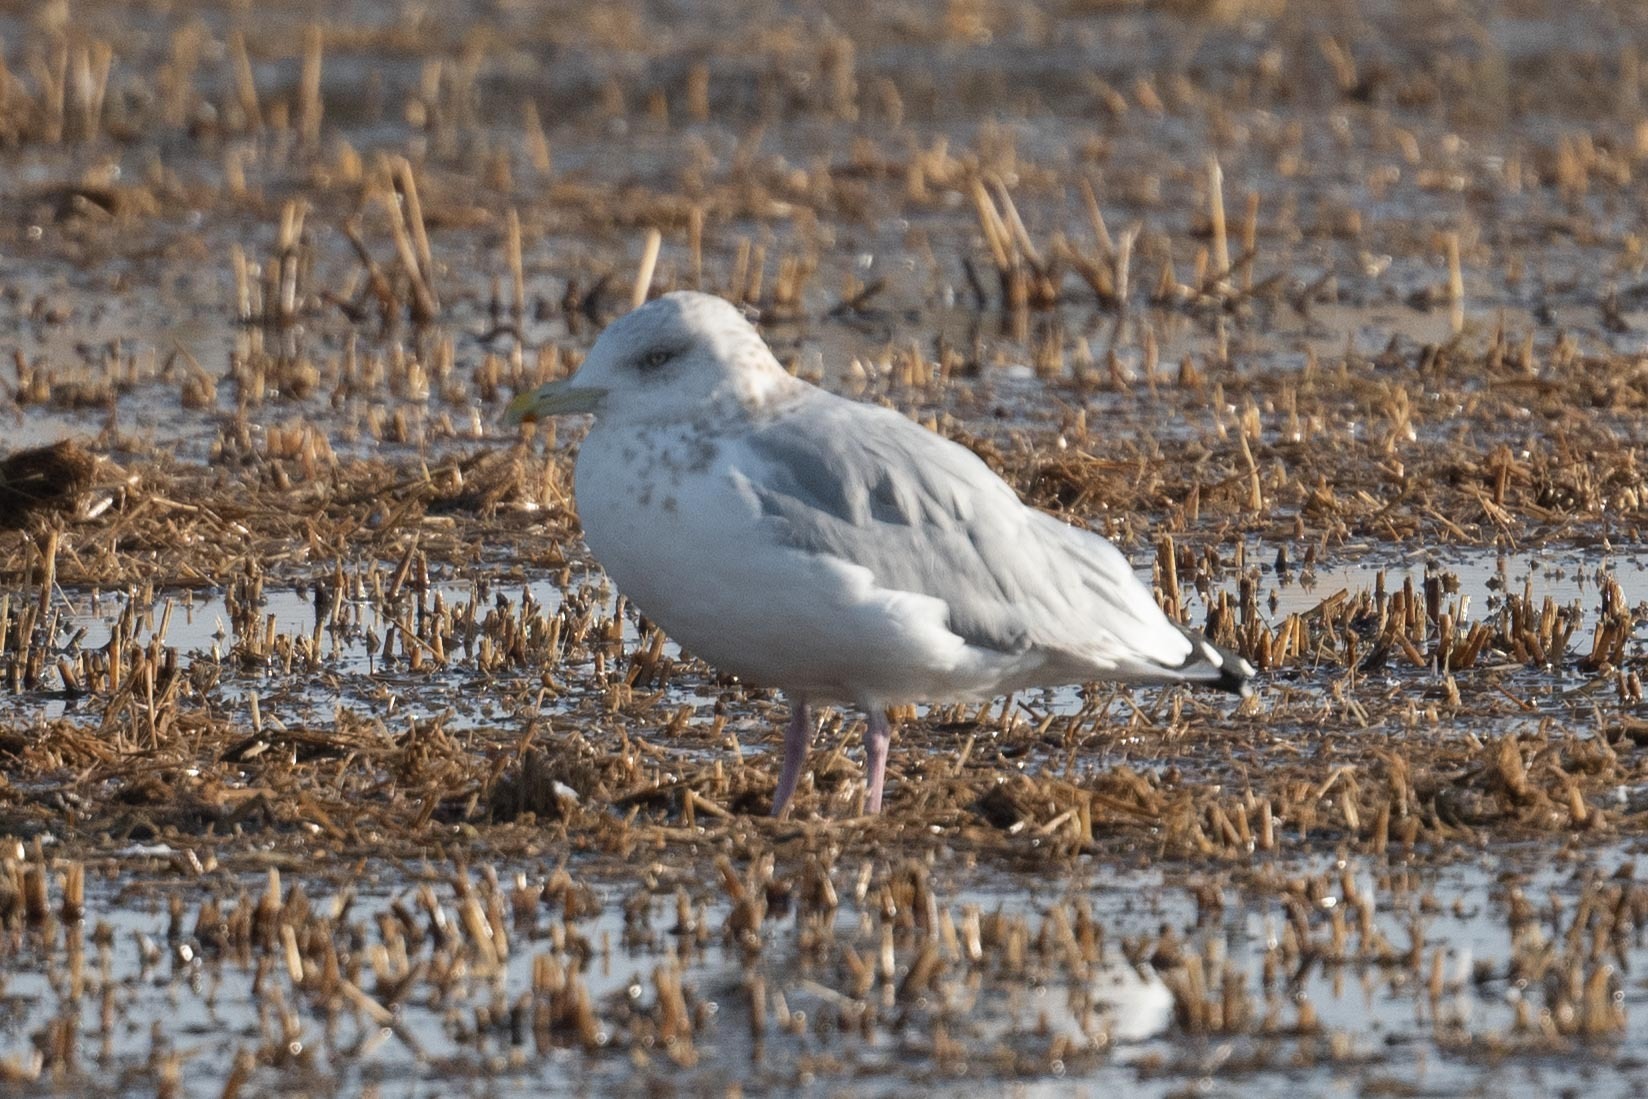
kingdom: Animalia
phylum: Chordata
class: Aves
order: Charadriiformes
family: Laridae
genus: Larus
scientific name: Larus argentatus
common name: Herring gull
